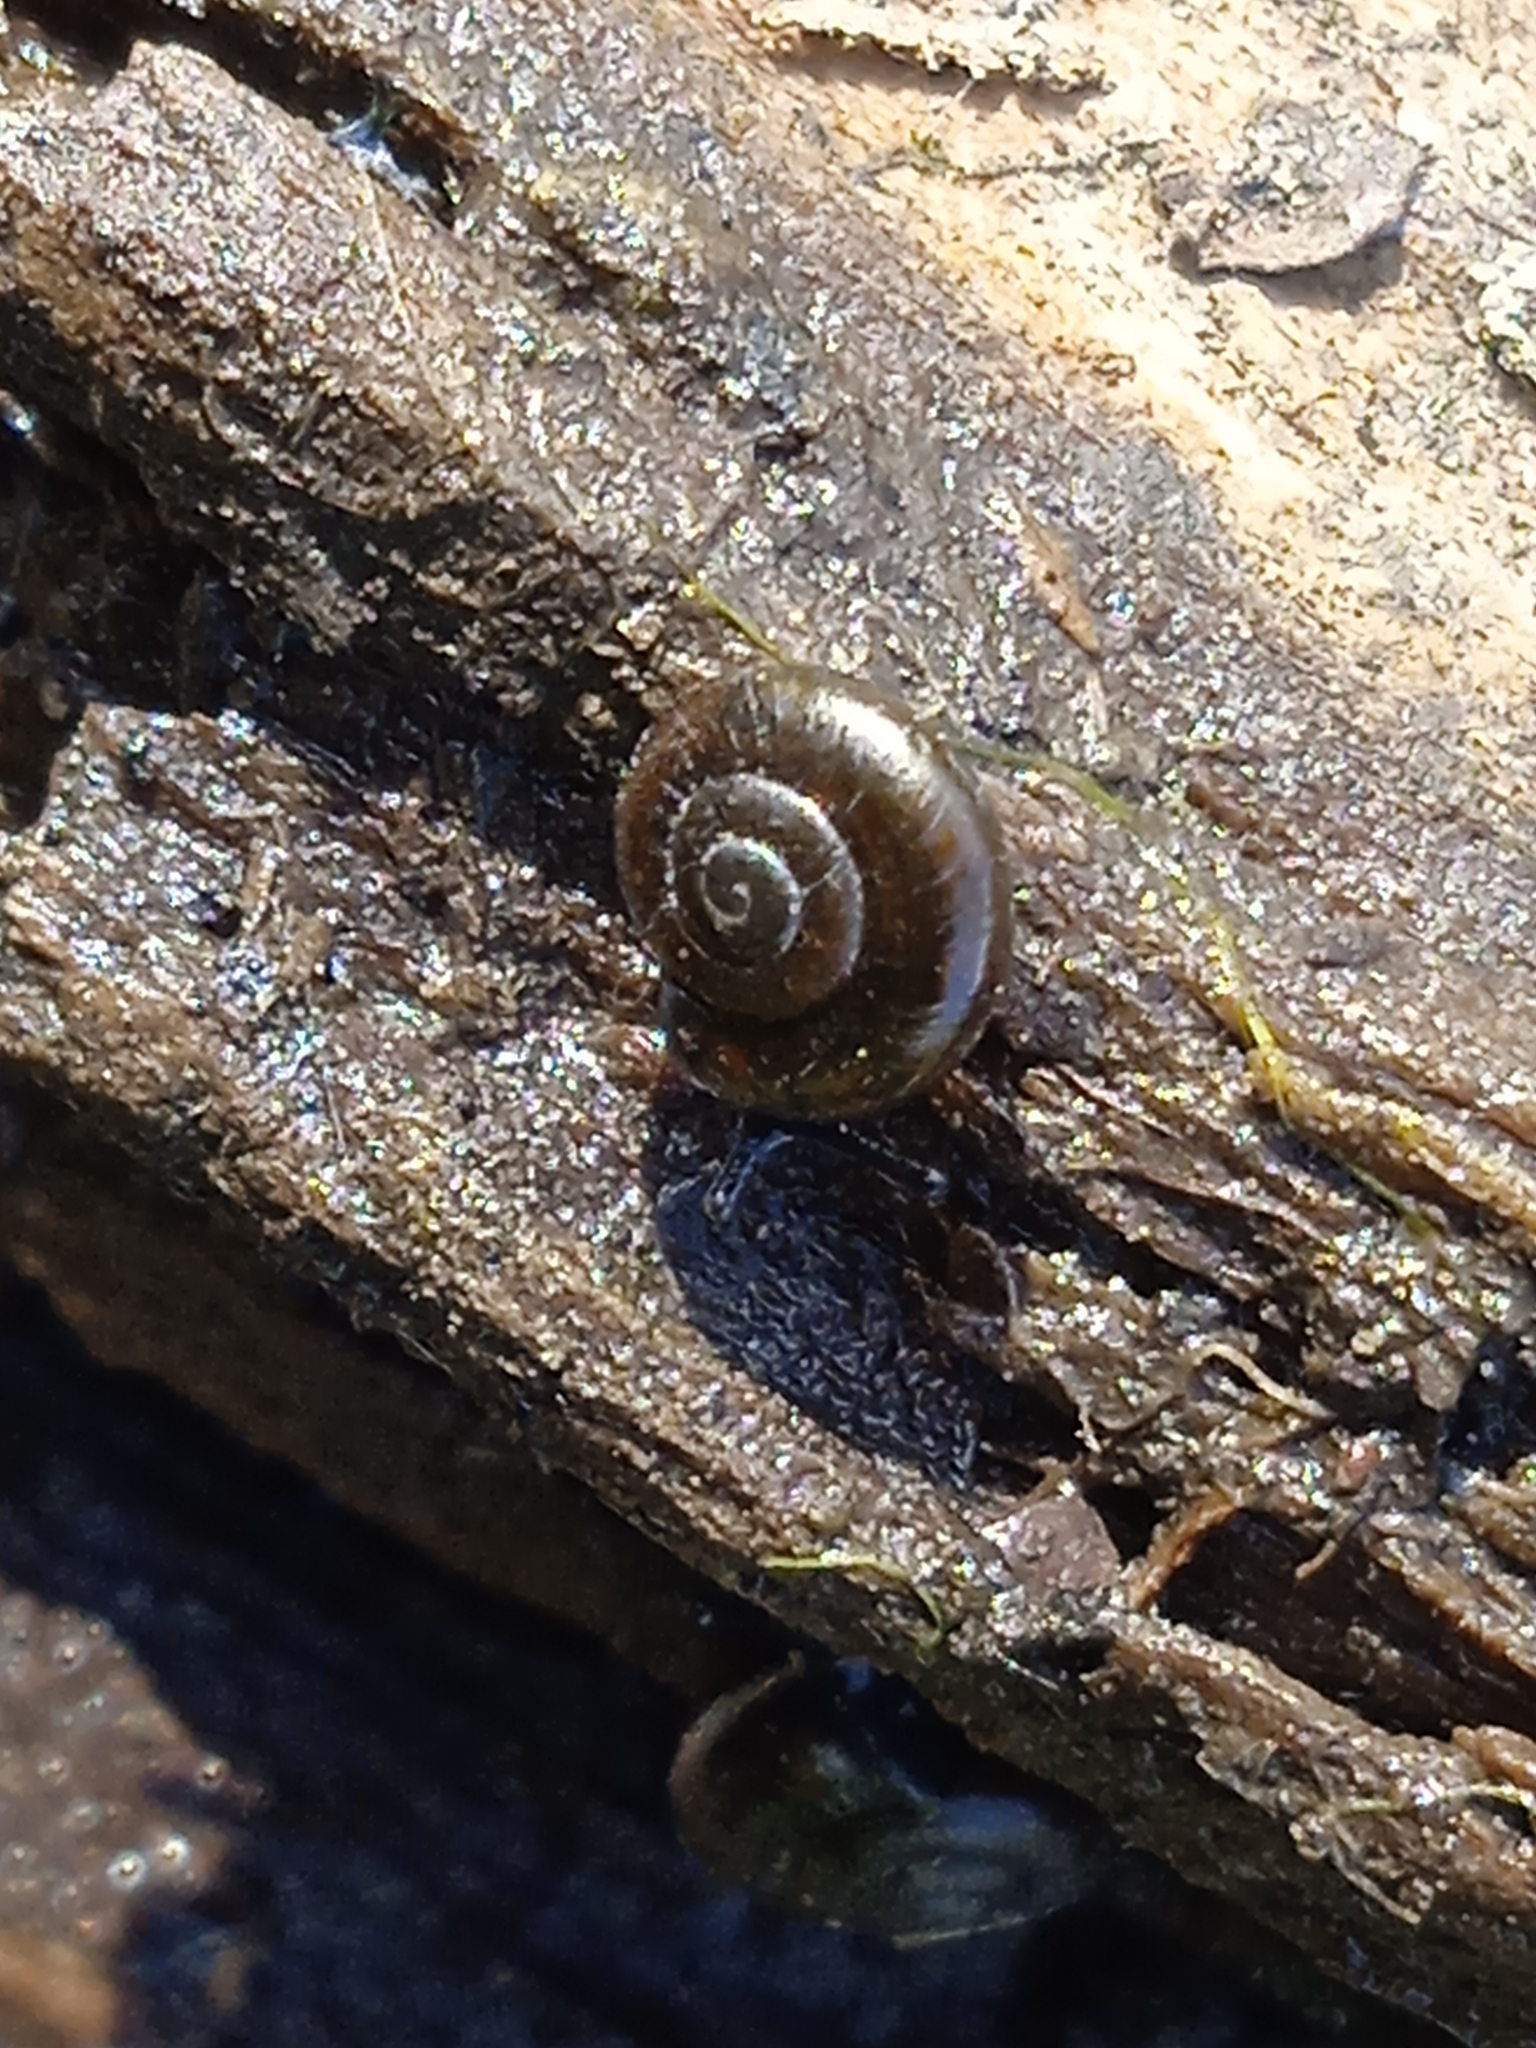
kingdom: Animalia
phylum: Mollusca
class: Gastropoda
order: Stylommatophora
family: Gastrodontidae
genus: Zonitoides
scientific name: Zonitoides nitidus
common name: Shiny glass snail
